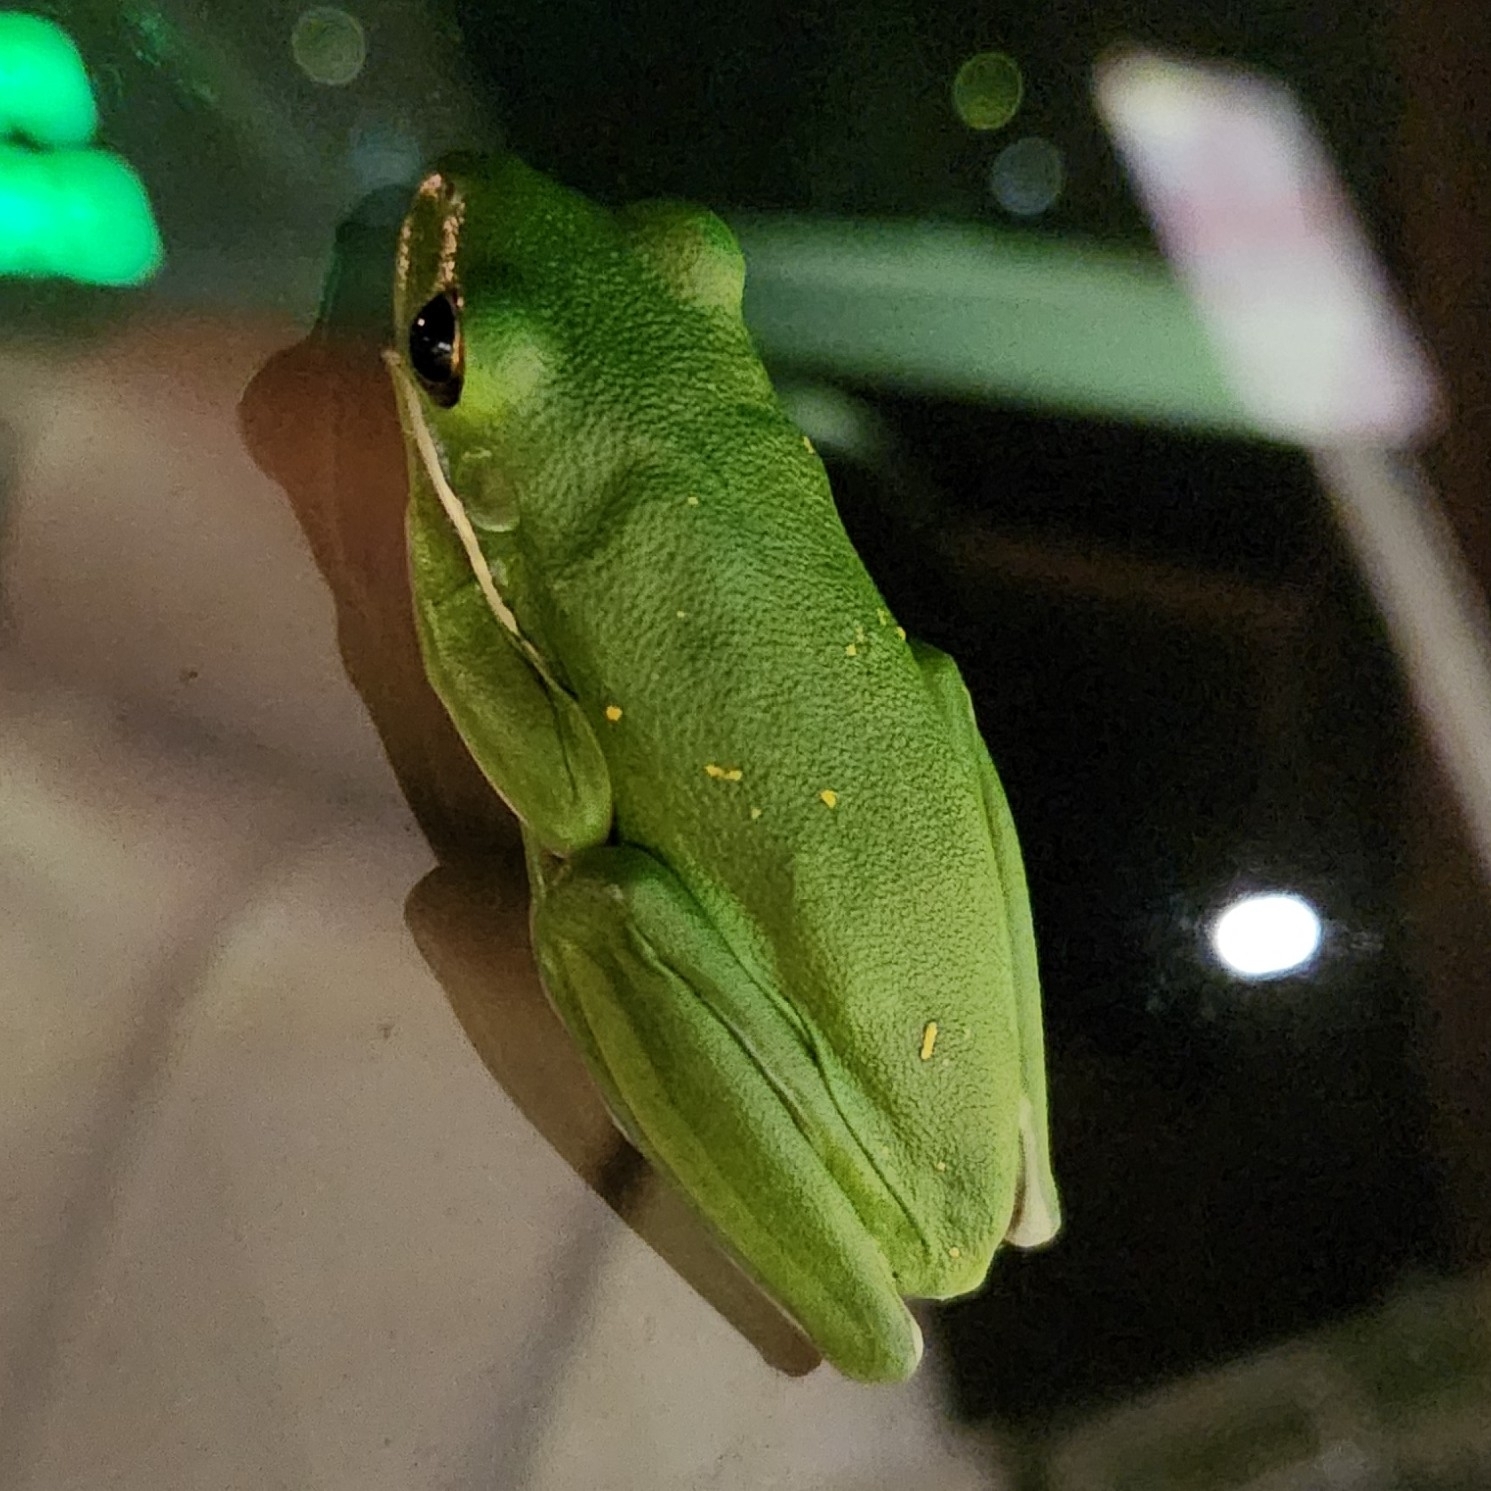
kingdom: Animalia
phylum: Chordata
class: Amphibia
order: Anura
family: Hylidae
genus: Dryophytes
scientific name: Dryophytes cinereus
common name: Green treefrog
